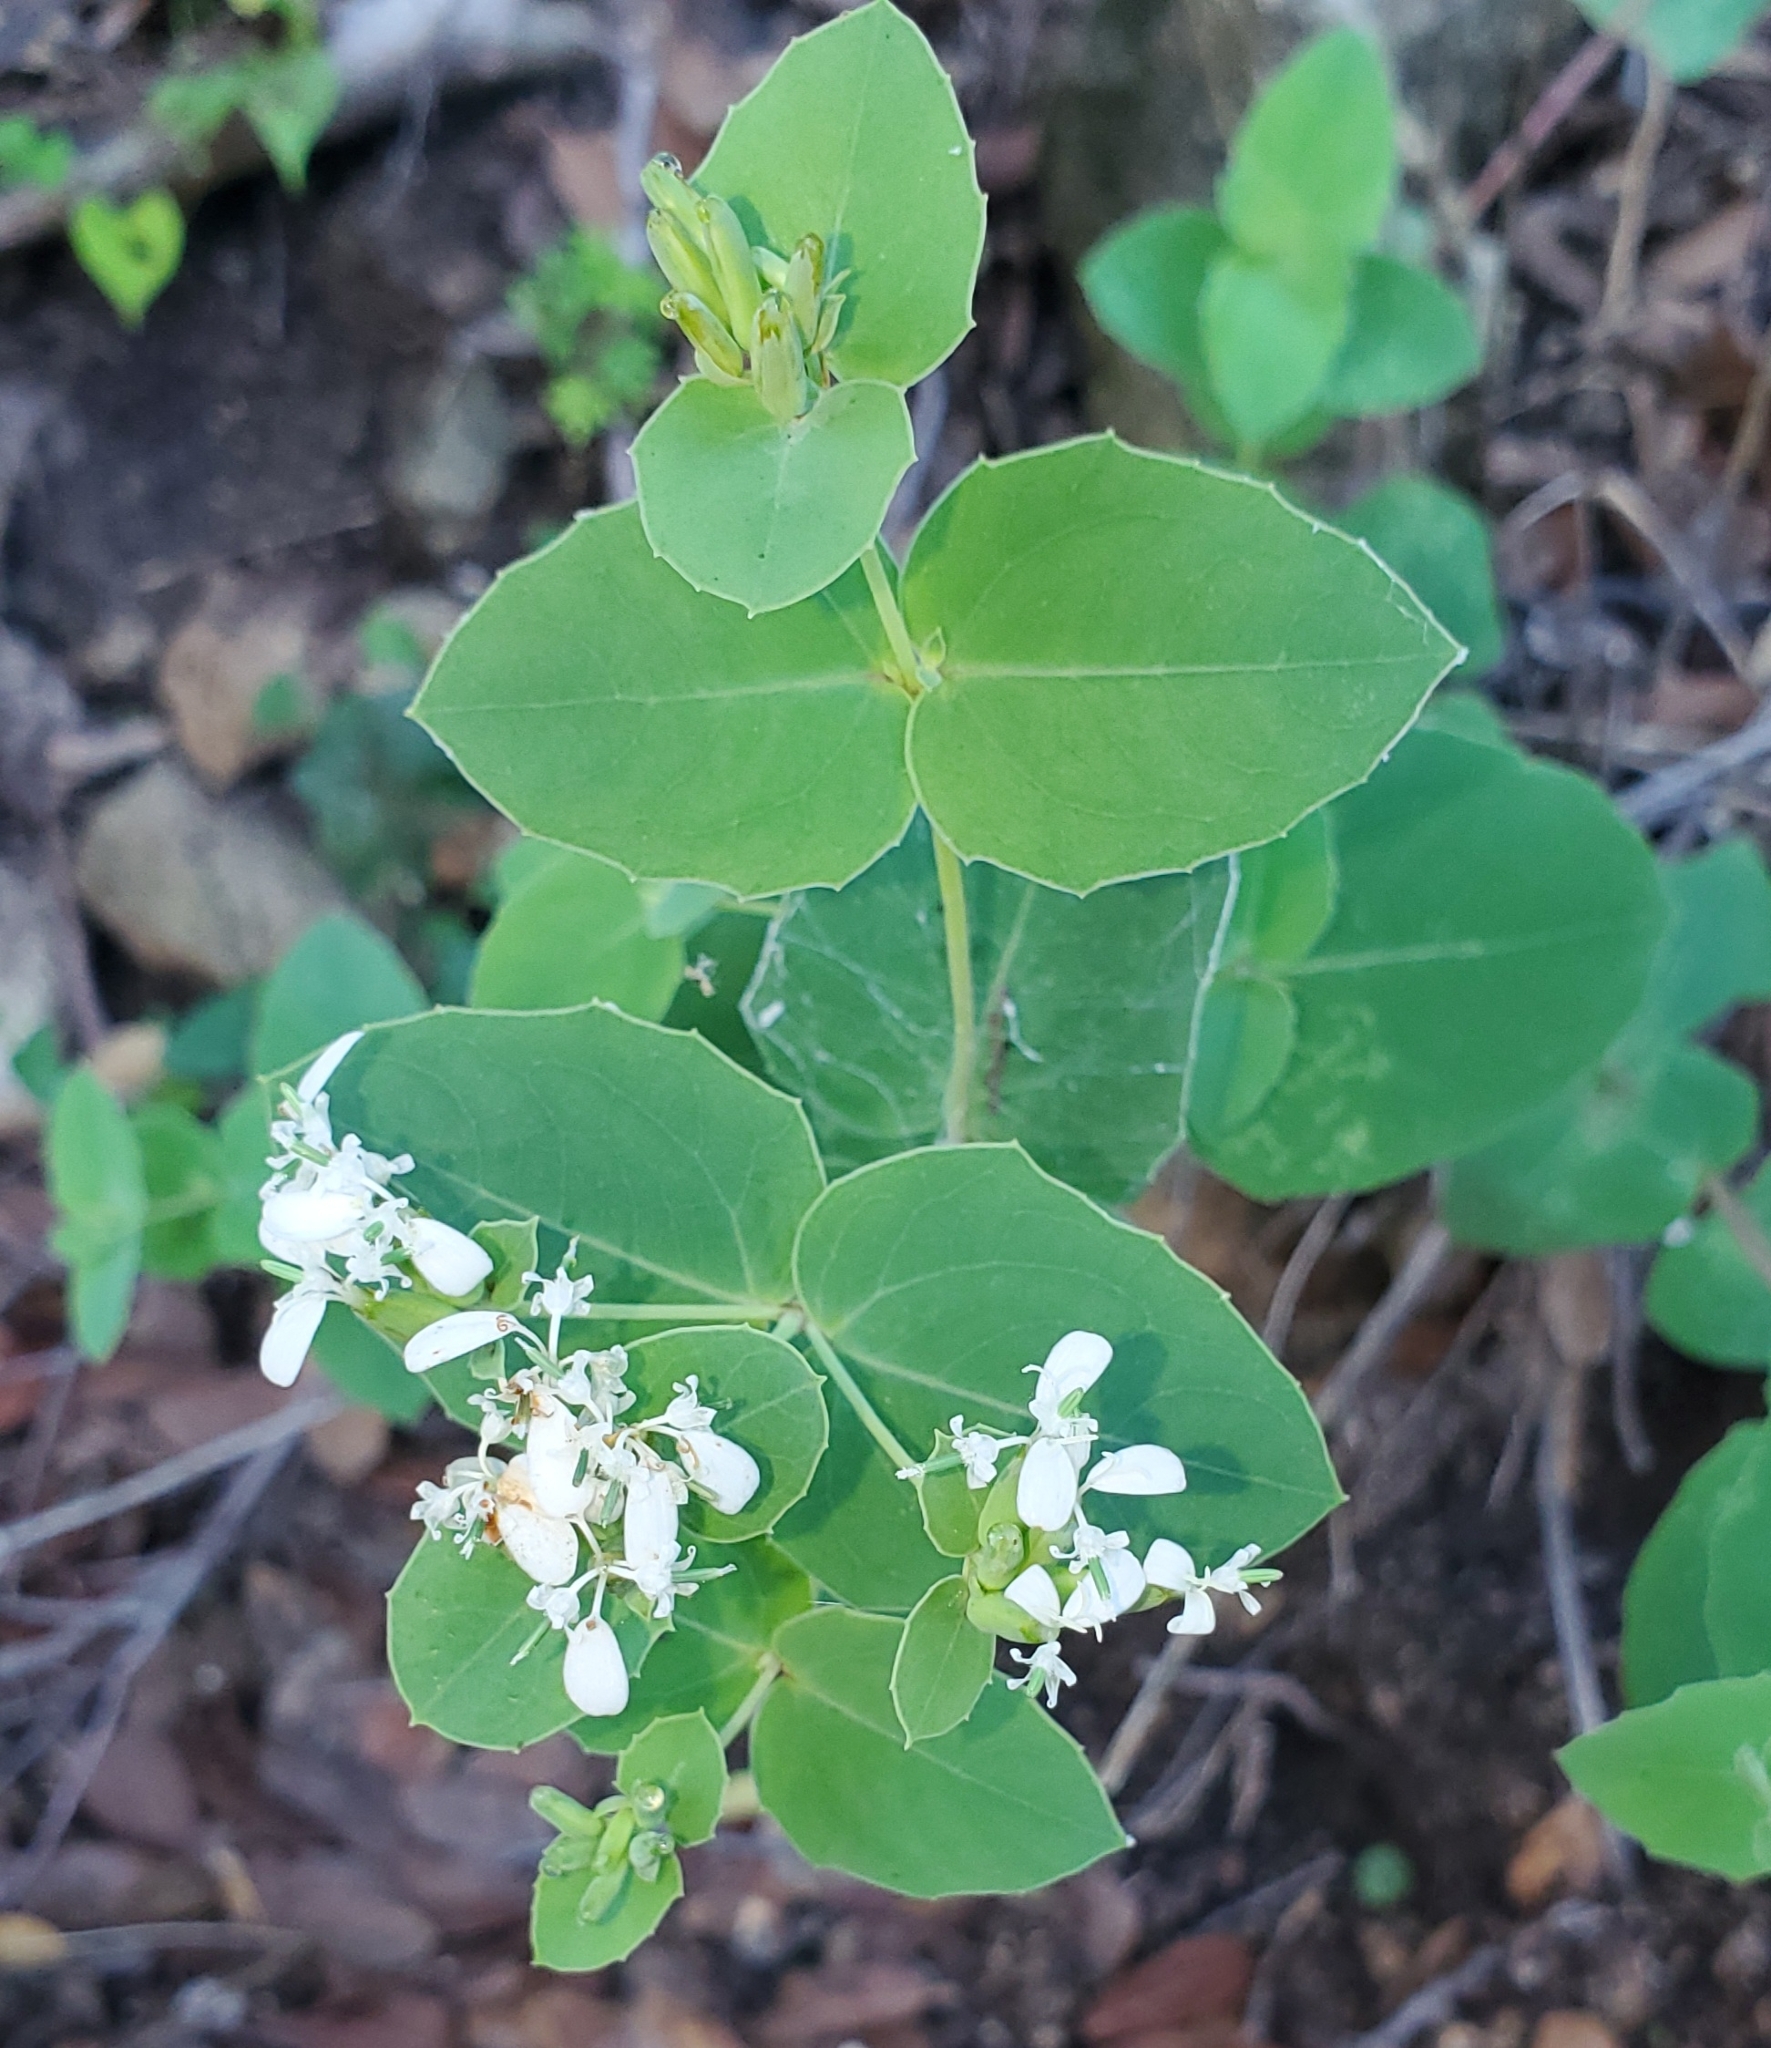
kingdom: Plantae
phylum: Tracheophyta
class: Magnoliopsida
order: Asterales
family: Asteraceae
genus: Guardiola
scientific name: Guardiola platyphylla
